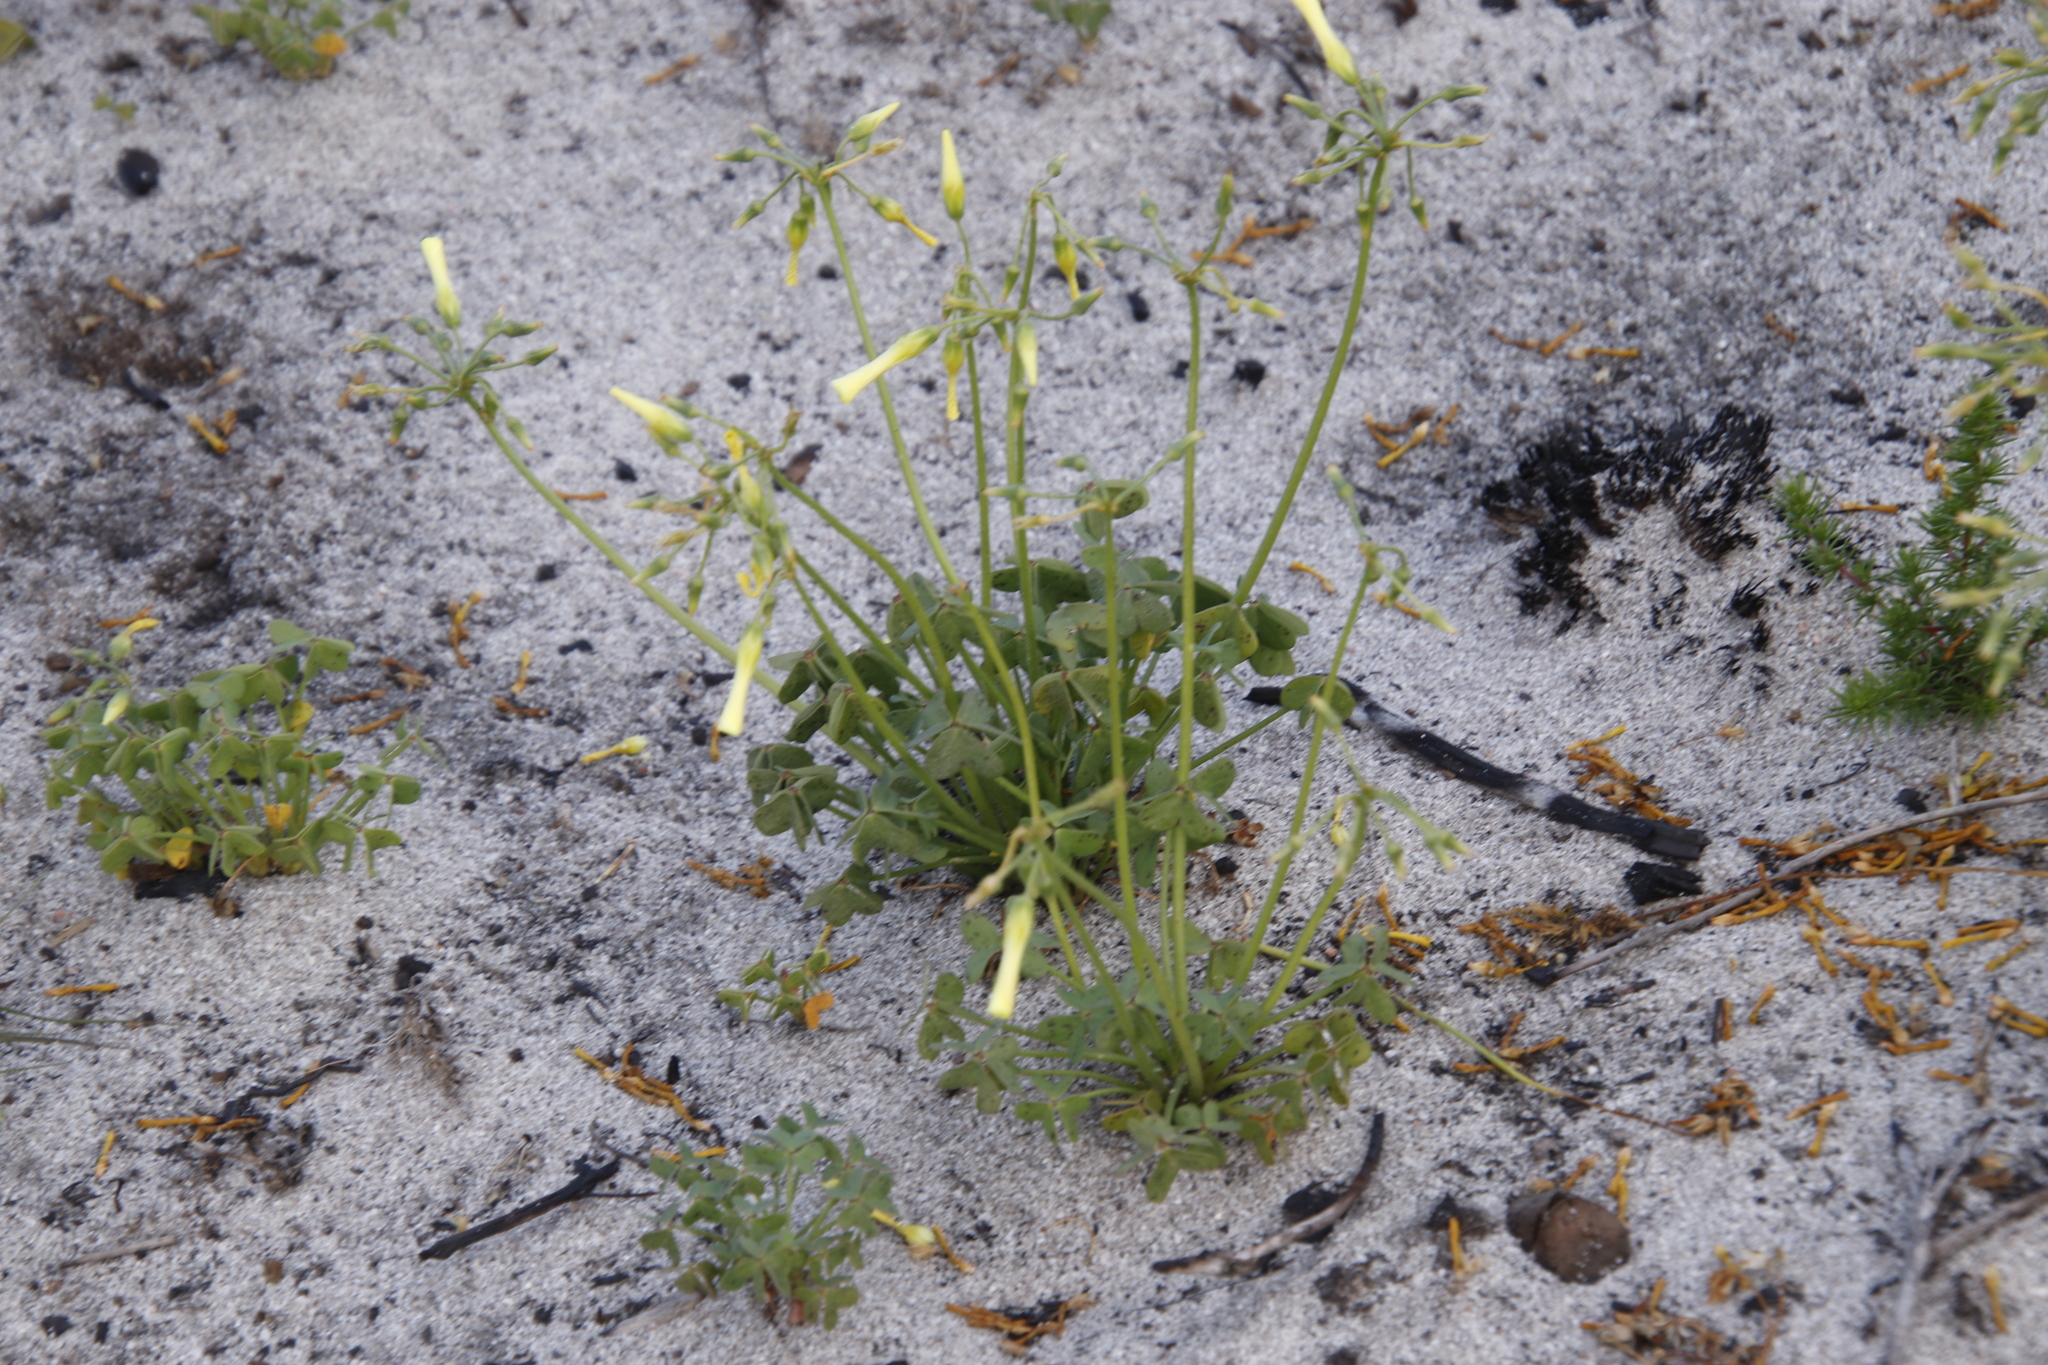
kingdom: Plantae
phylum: Tracheophyta
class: Magnoliopsida
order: Oxalidales
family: Oxalidaceae
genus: Oxalis
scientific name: Oxalis pes-caprae
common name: Bermuda-buttercup
